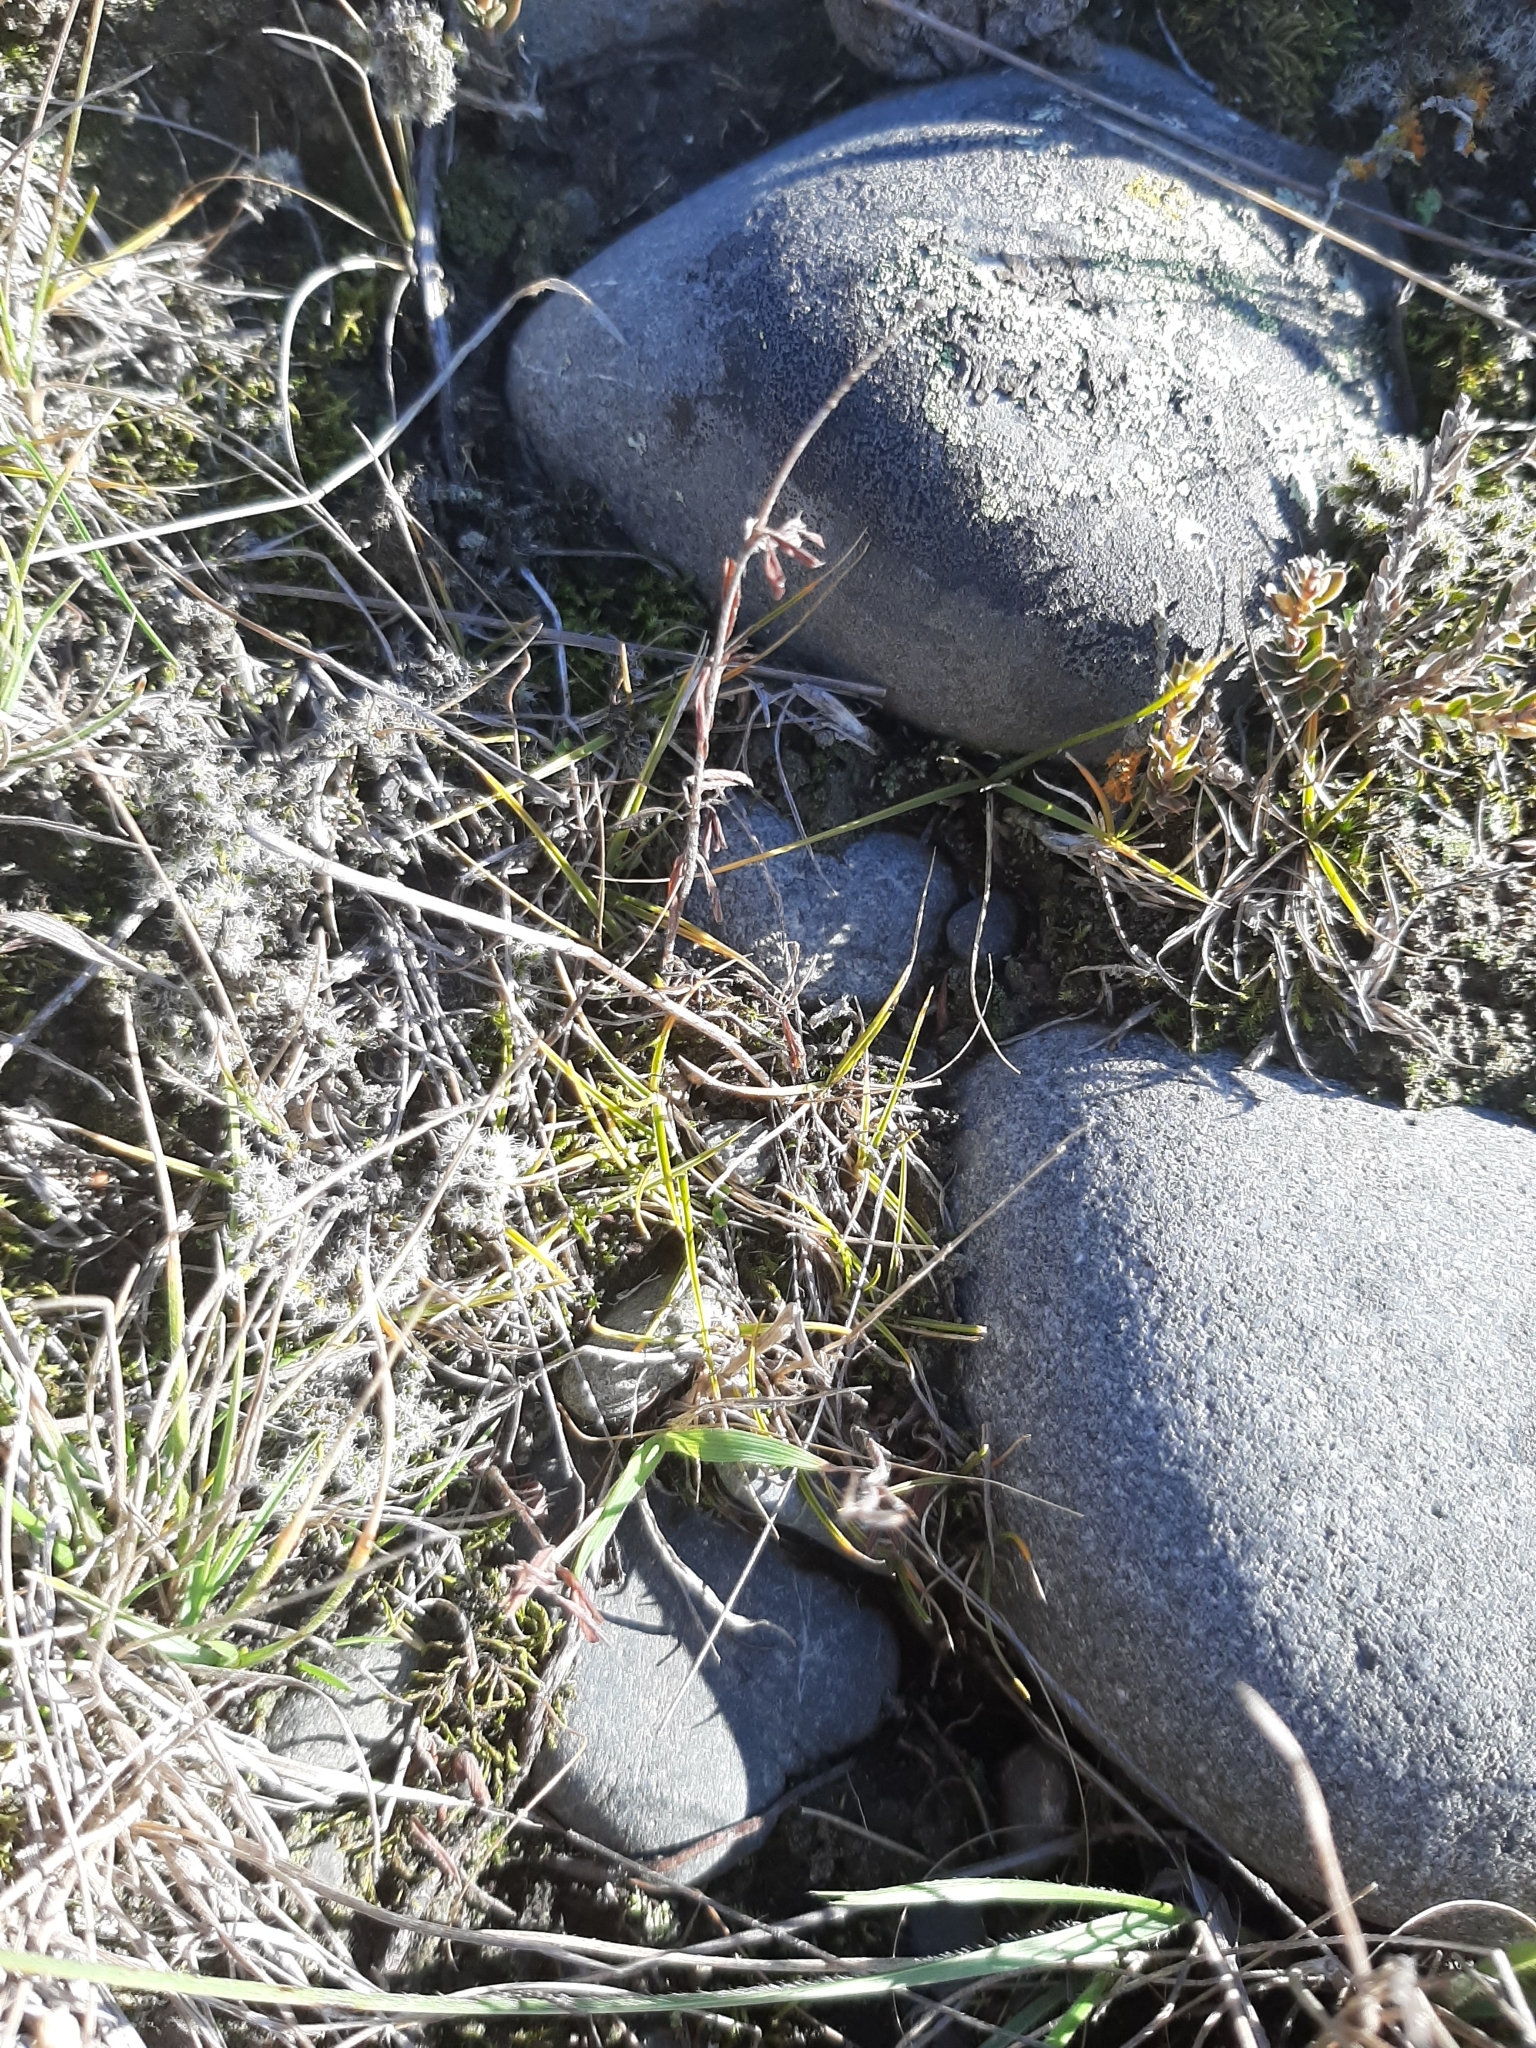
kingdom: Plantae
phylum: Tracheophyta
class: Liliopsida
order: Poales
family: Poaceae
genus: Zoysia
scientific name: Zoysia minima
